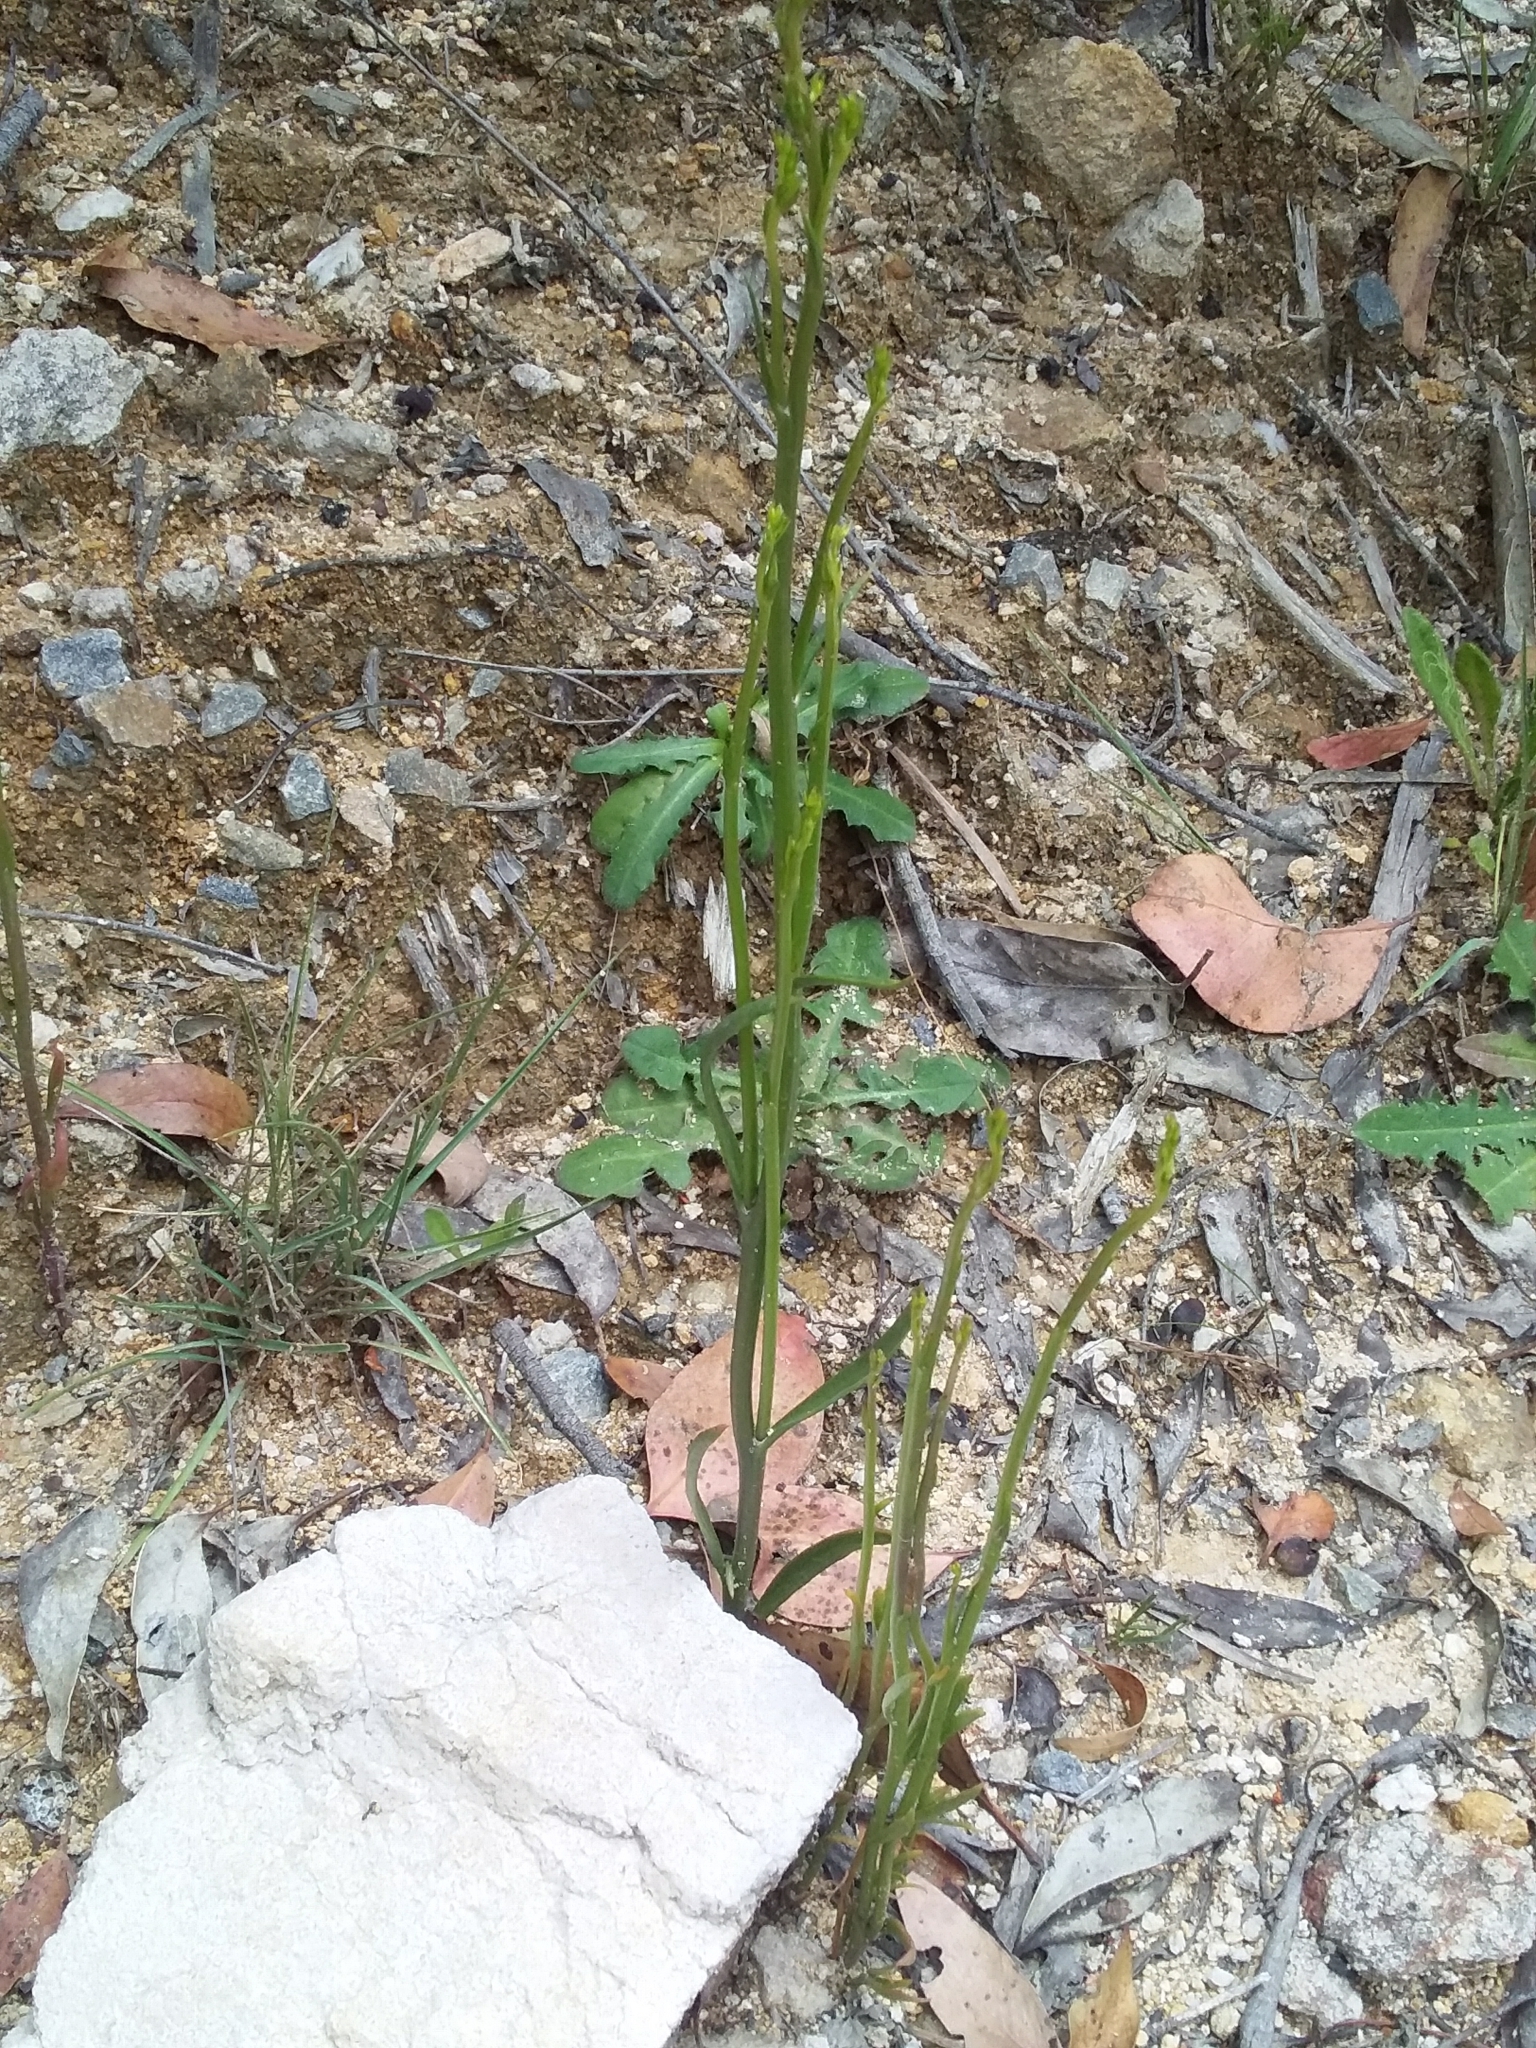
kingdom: Plantae
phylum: Tracheophyta
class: Magnoliopsida
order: Asterales
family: Campanulaceae
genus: Lobelia
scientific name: Lobelia gibbosa
